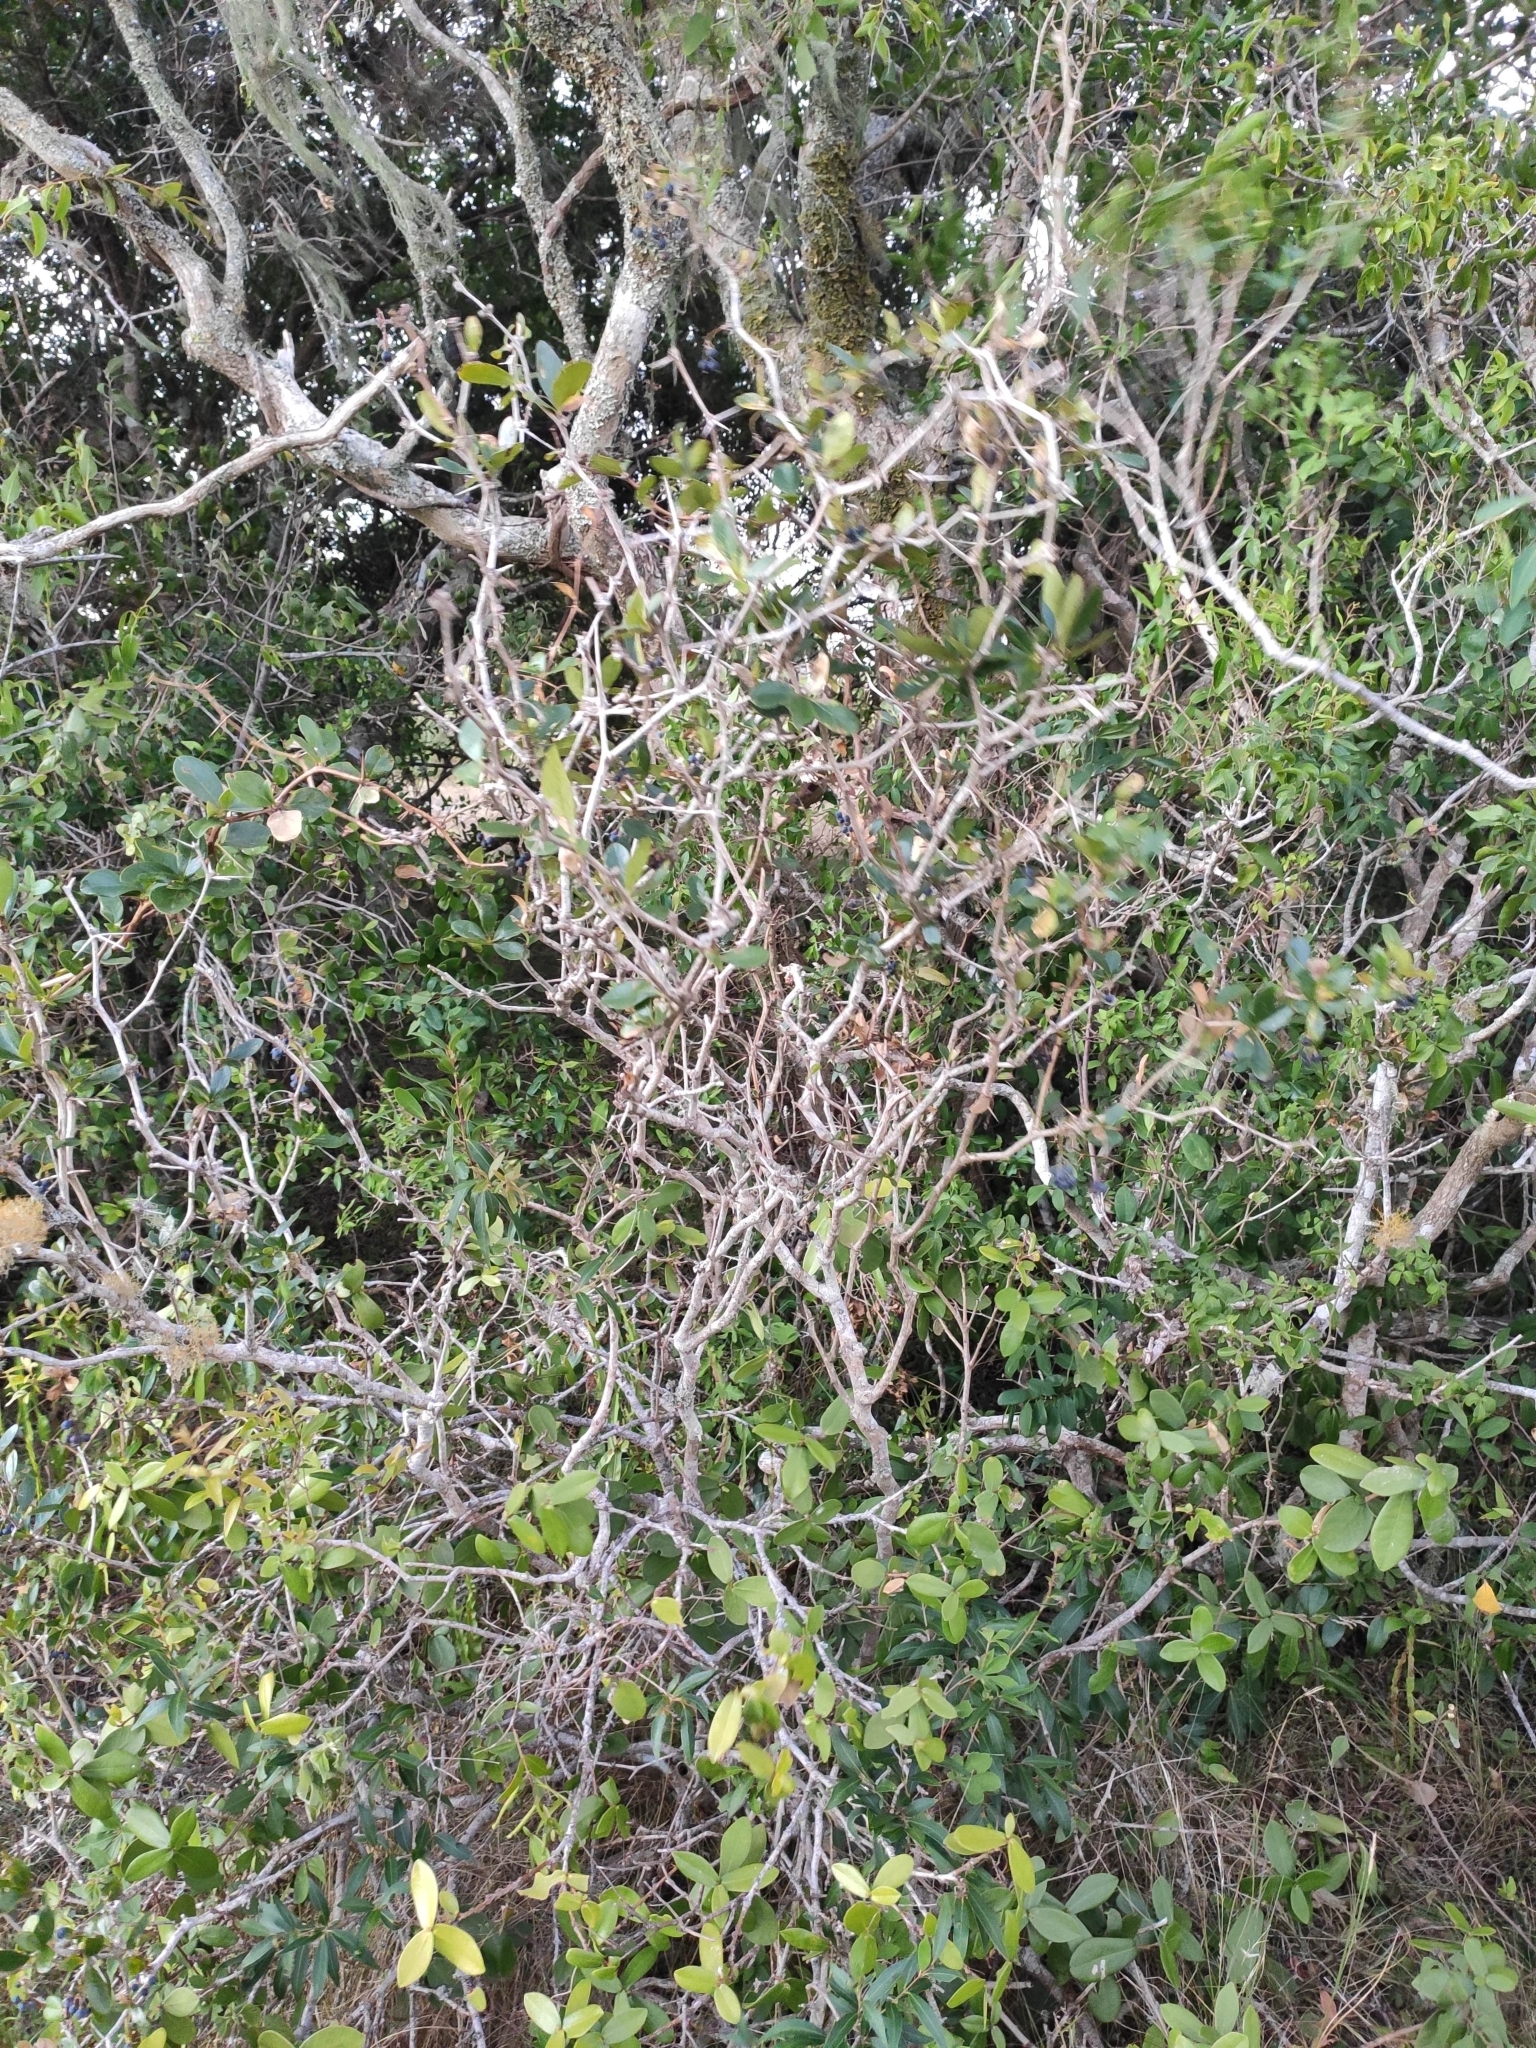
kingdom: Plantae
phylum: Tracheophyta
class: Magnoliopsida
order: Ranunculales
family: Berberidaceae
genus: Berberis
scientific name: Berberis laurina
